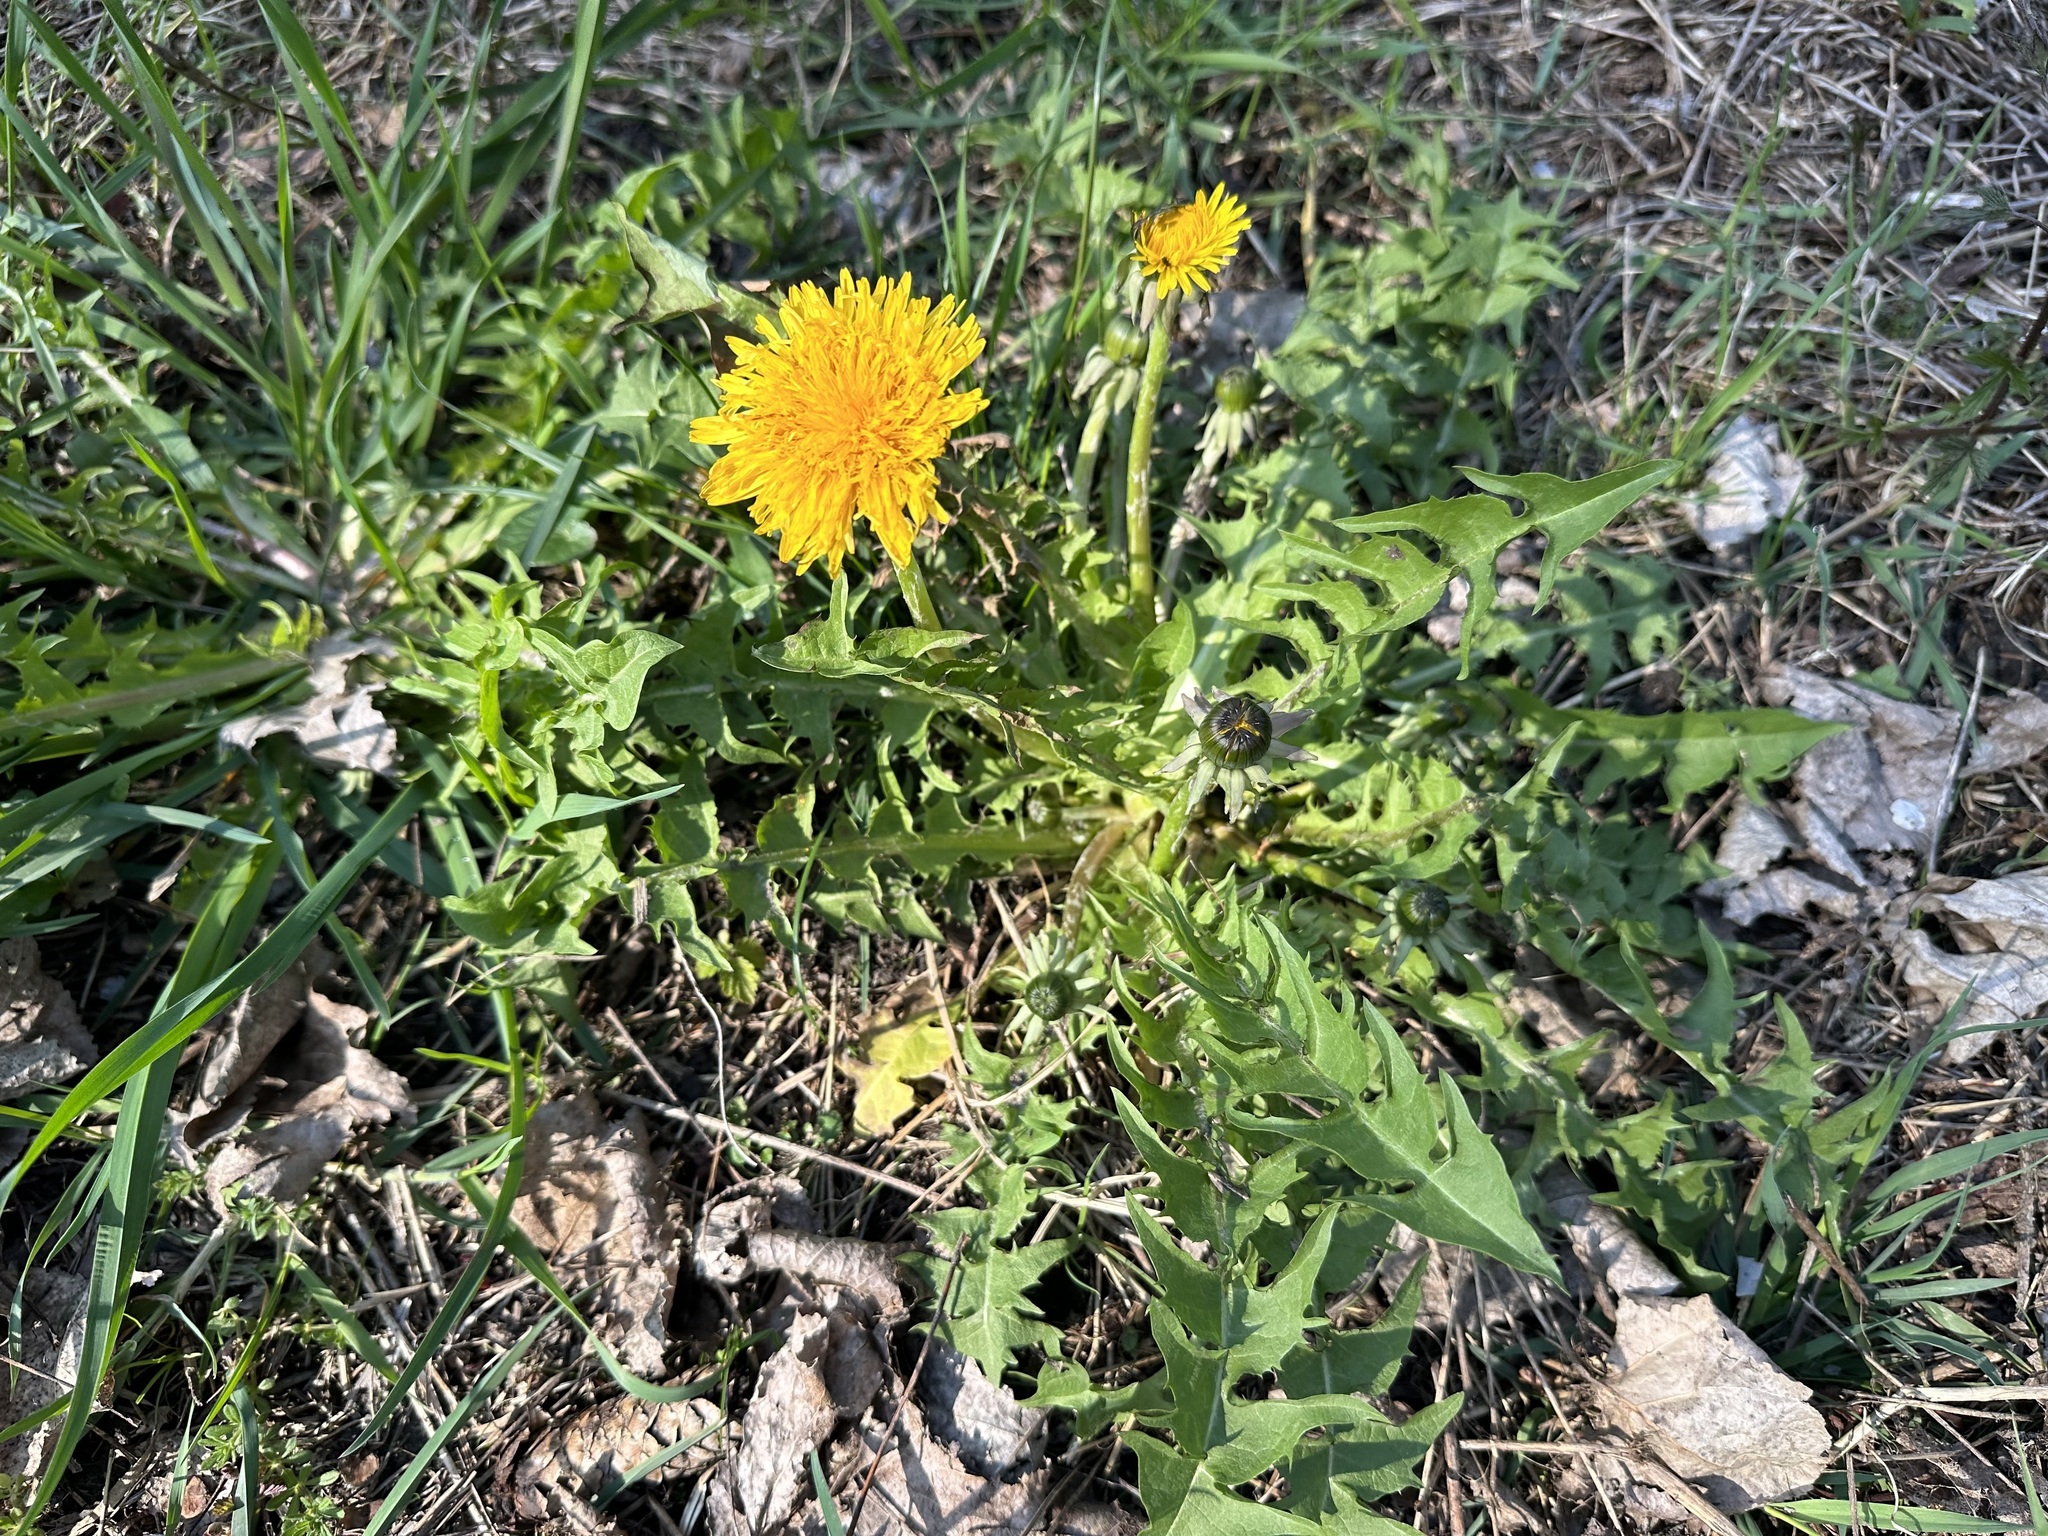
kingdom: Plantae
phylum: Tracheophyta
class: Magnoliopsida
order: Asterales
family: Asteraceae
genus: Taraxacum
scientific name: Taraxacum officinale
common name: Common dandelion
